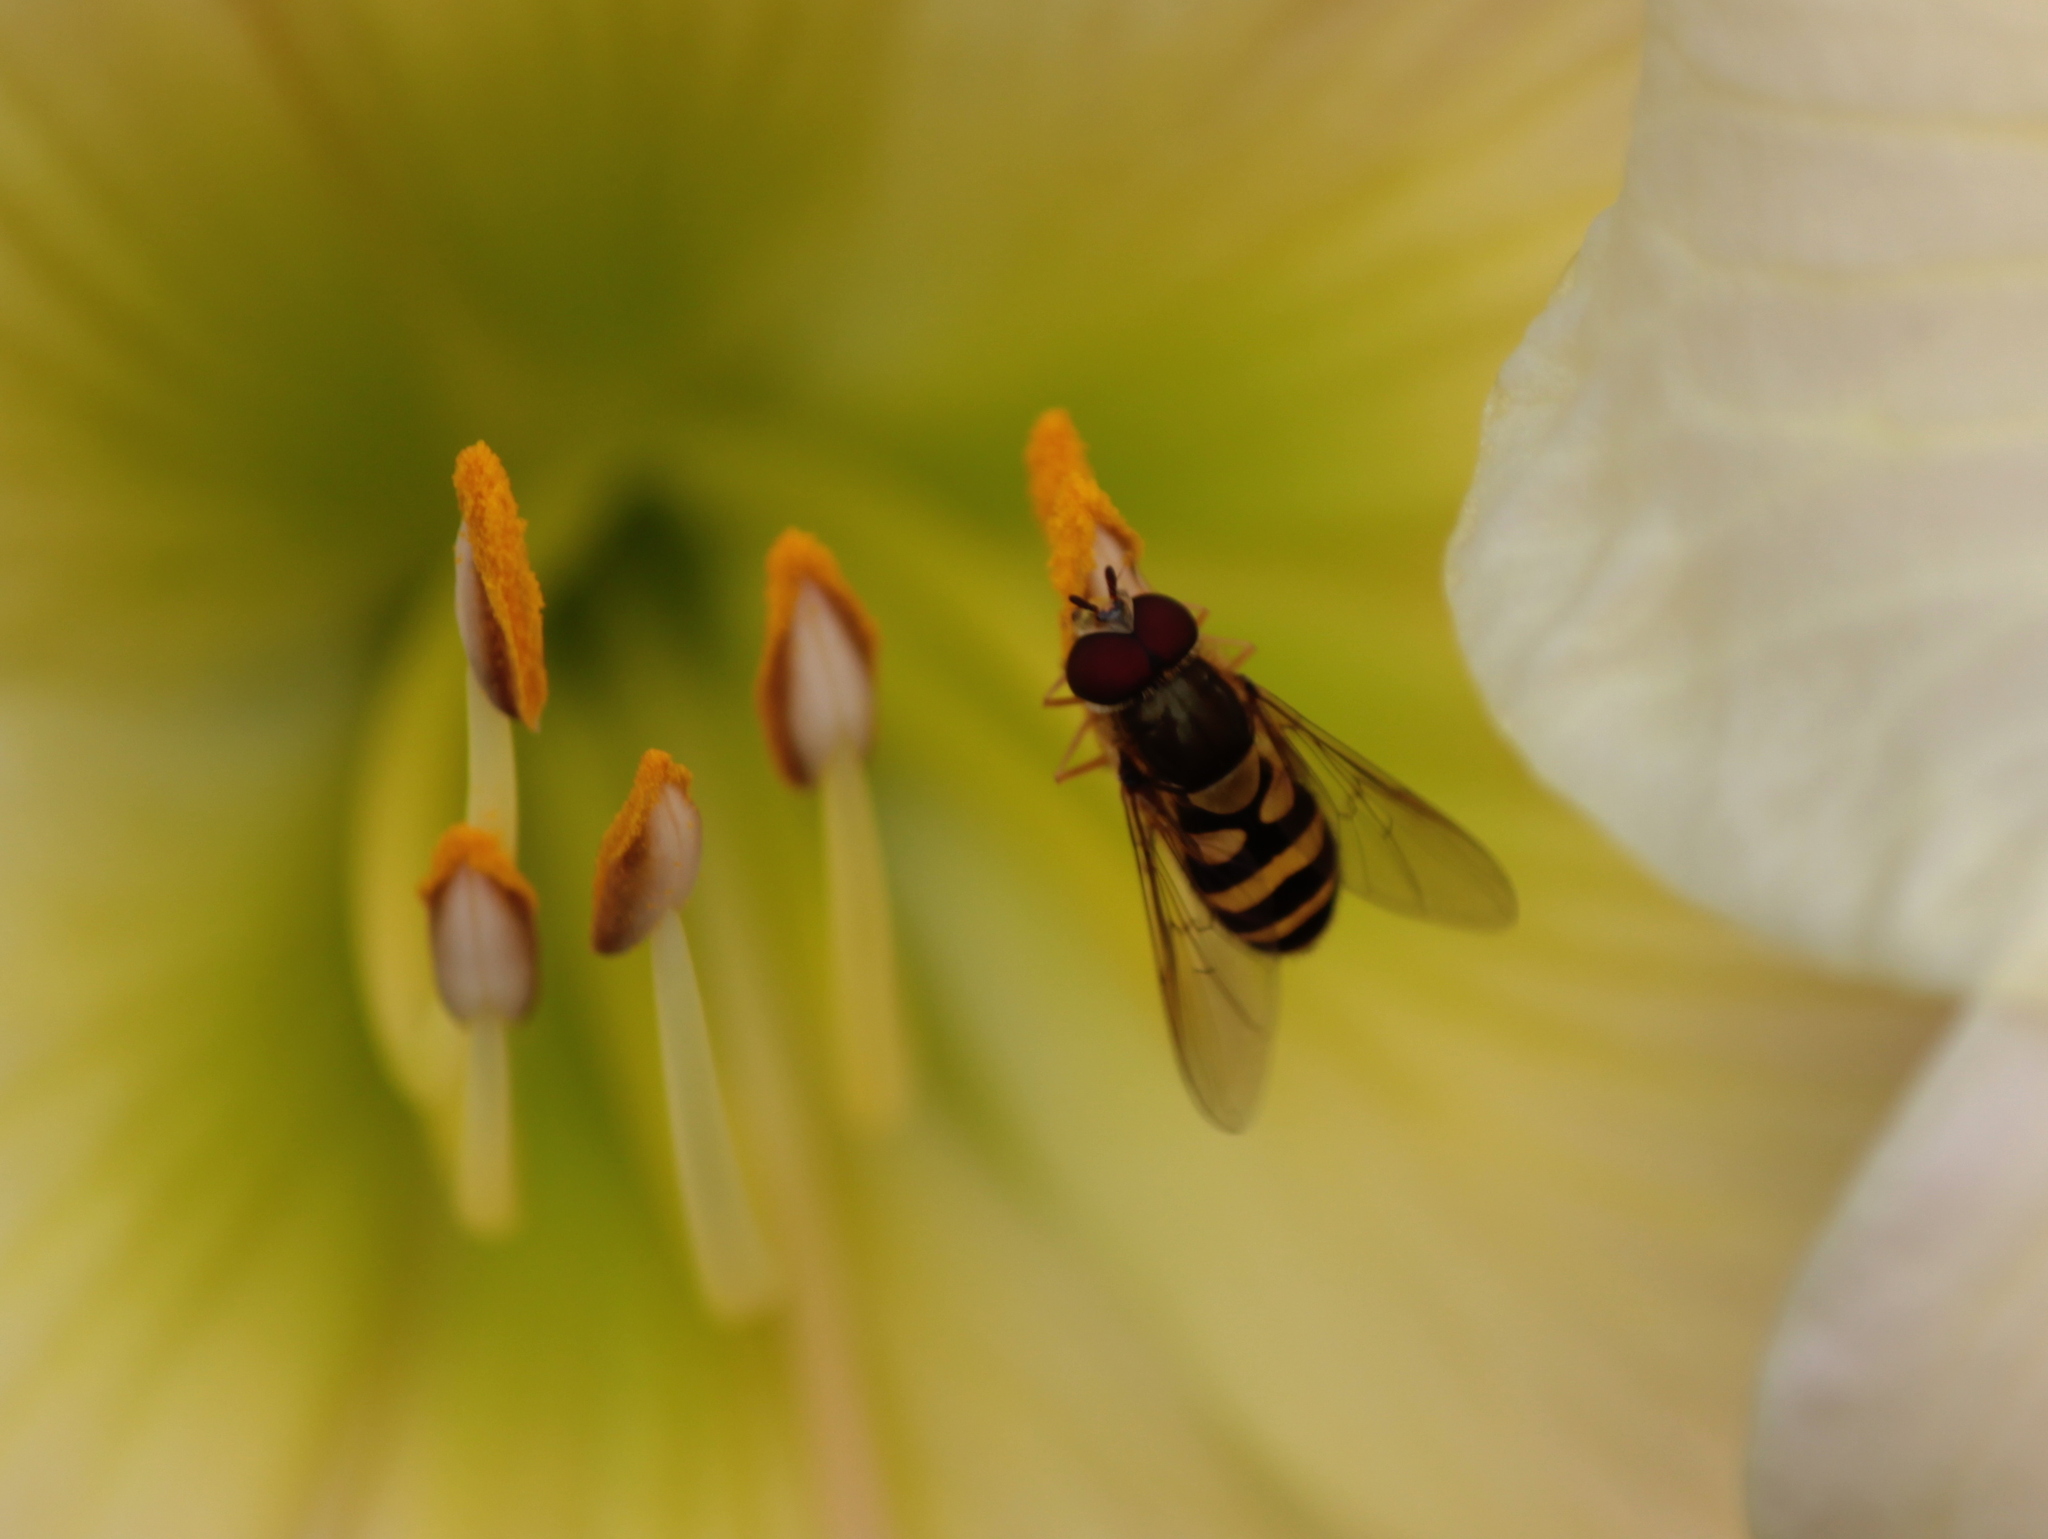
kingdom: Animalia
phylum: Arthropoda
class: Insecta
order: Diptera
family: Syrphidae
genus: Syrphus
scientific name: Syrphus
